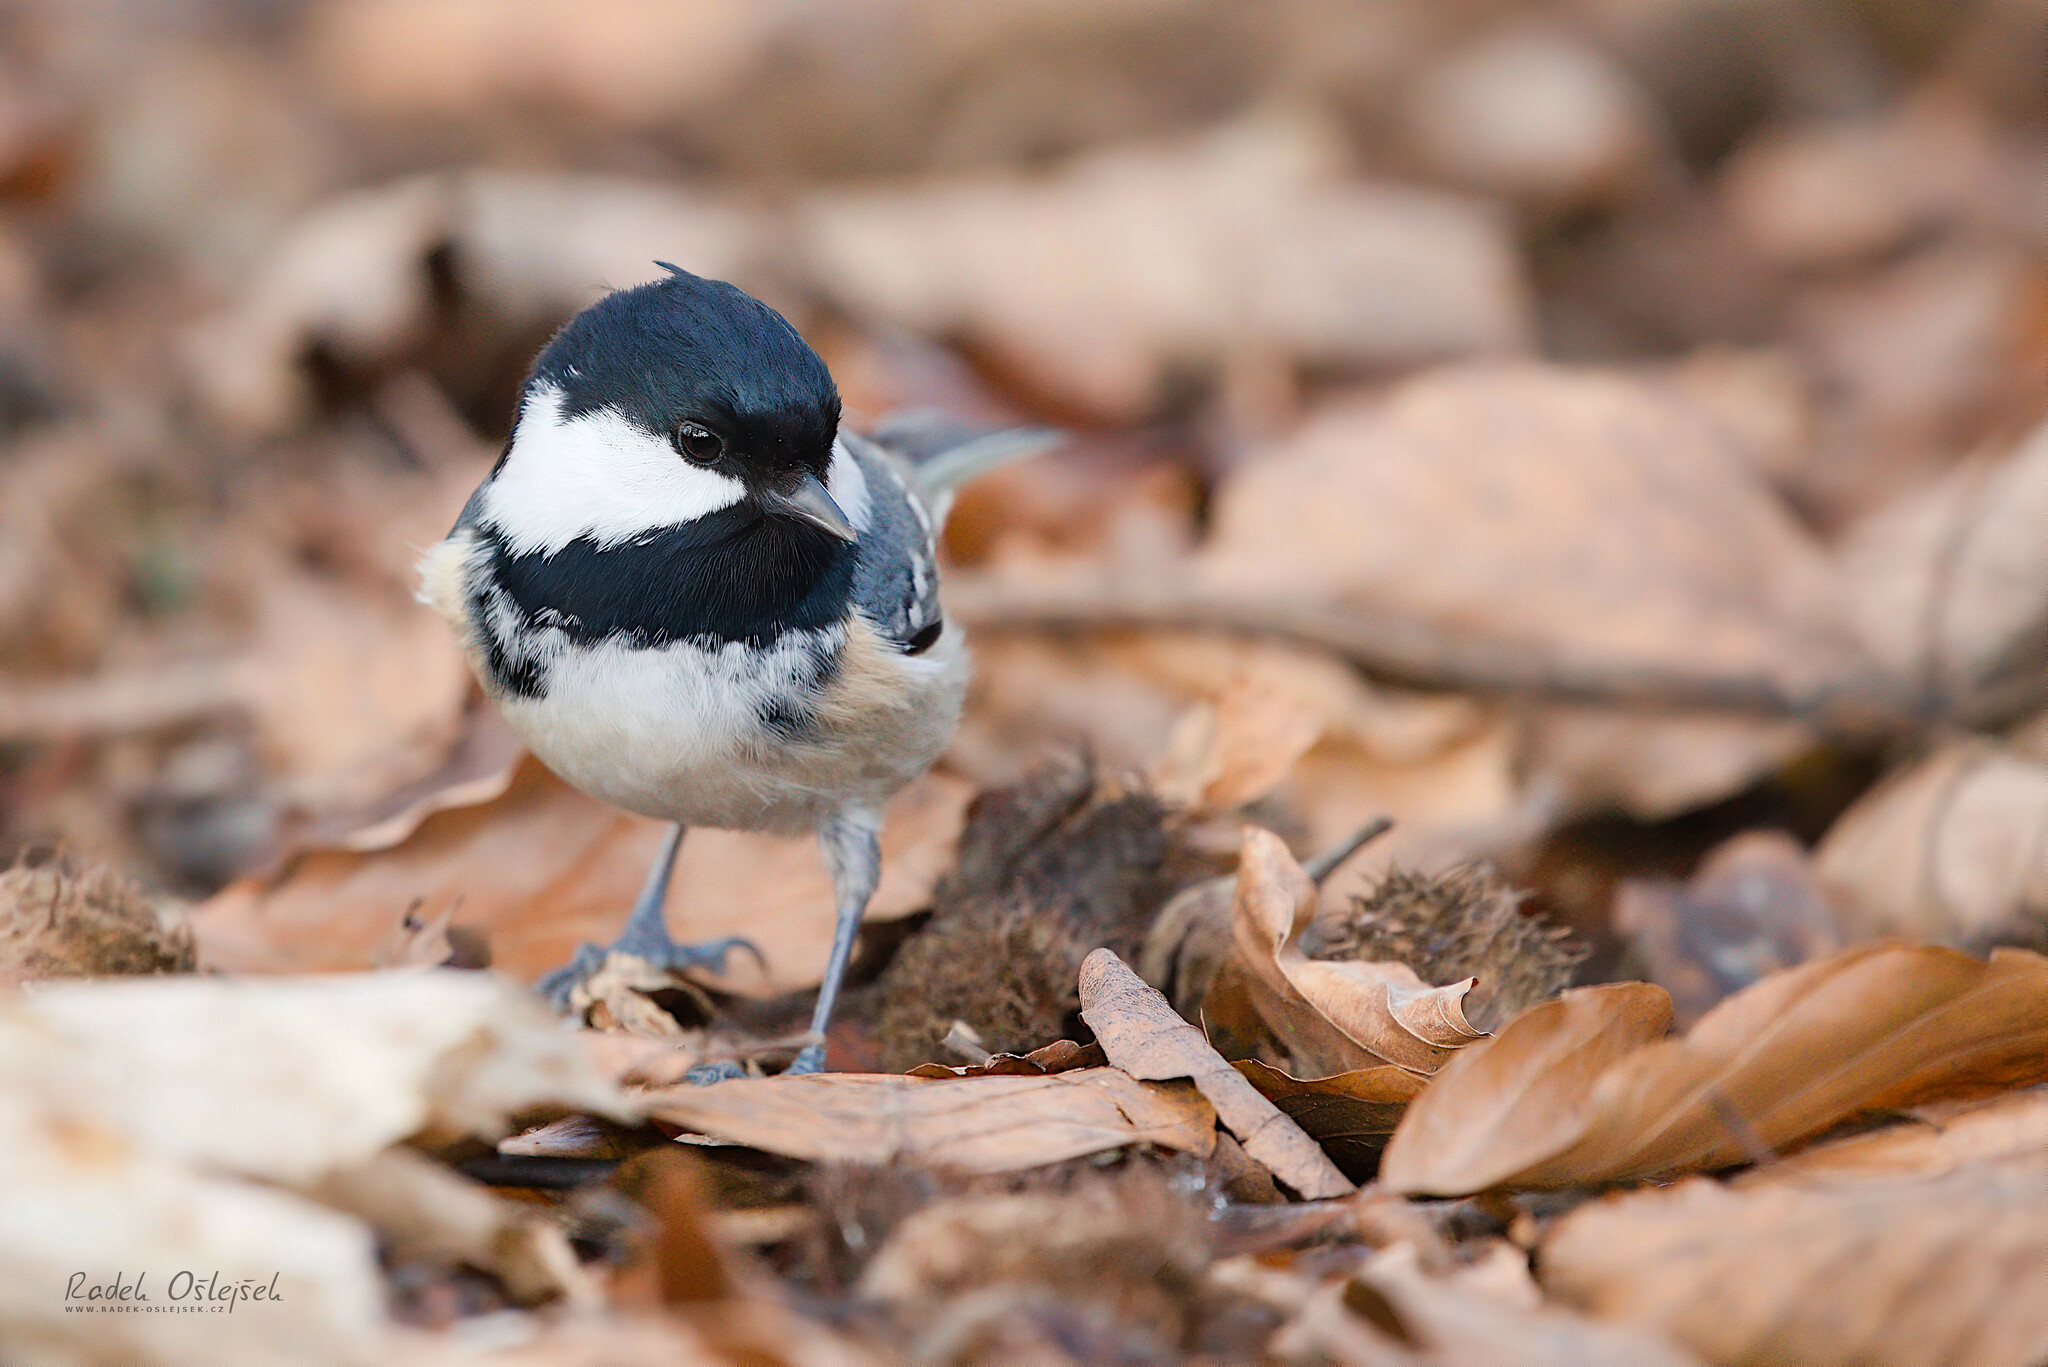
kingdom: Animalia
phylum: Chordata
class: Aves
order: Passeriformes
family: Paridae
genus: Periparus
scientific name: Periparus ater
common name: Coal tit
